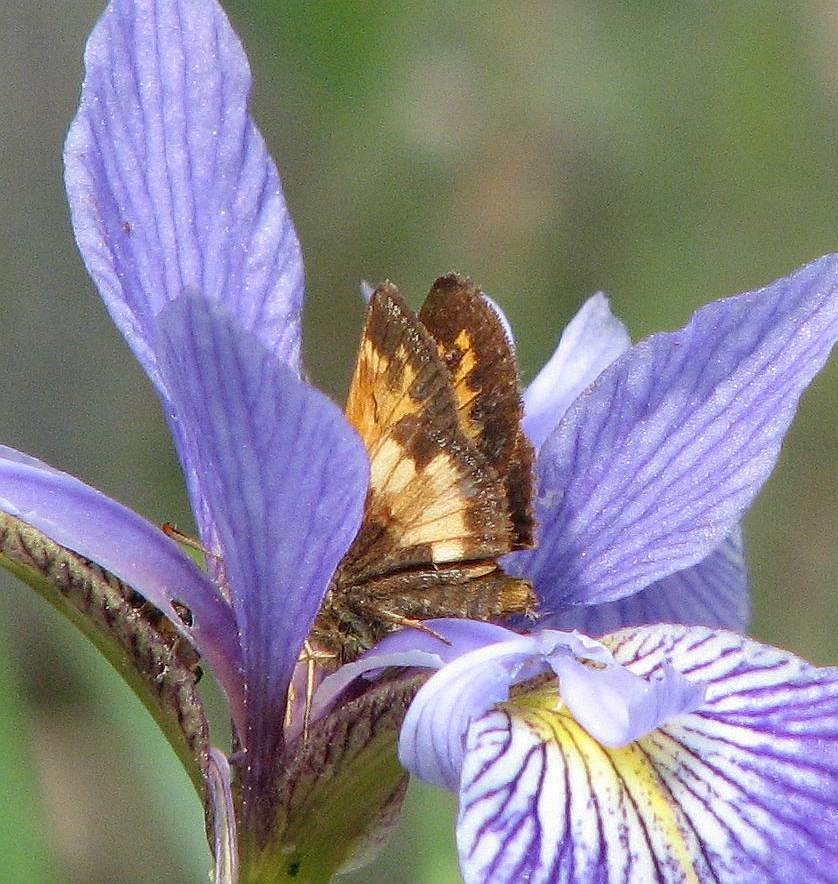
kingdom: Animalia
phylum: Arthropoda
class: Insecta
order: Lepidoptera
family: Hesperiidae
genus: Lon
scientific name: Lon hobomok
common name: Hobomok skipper
